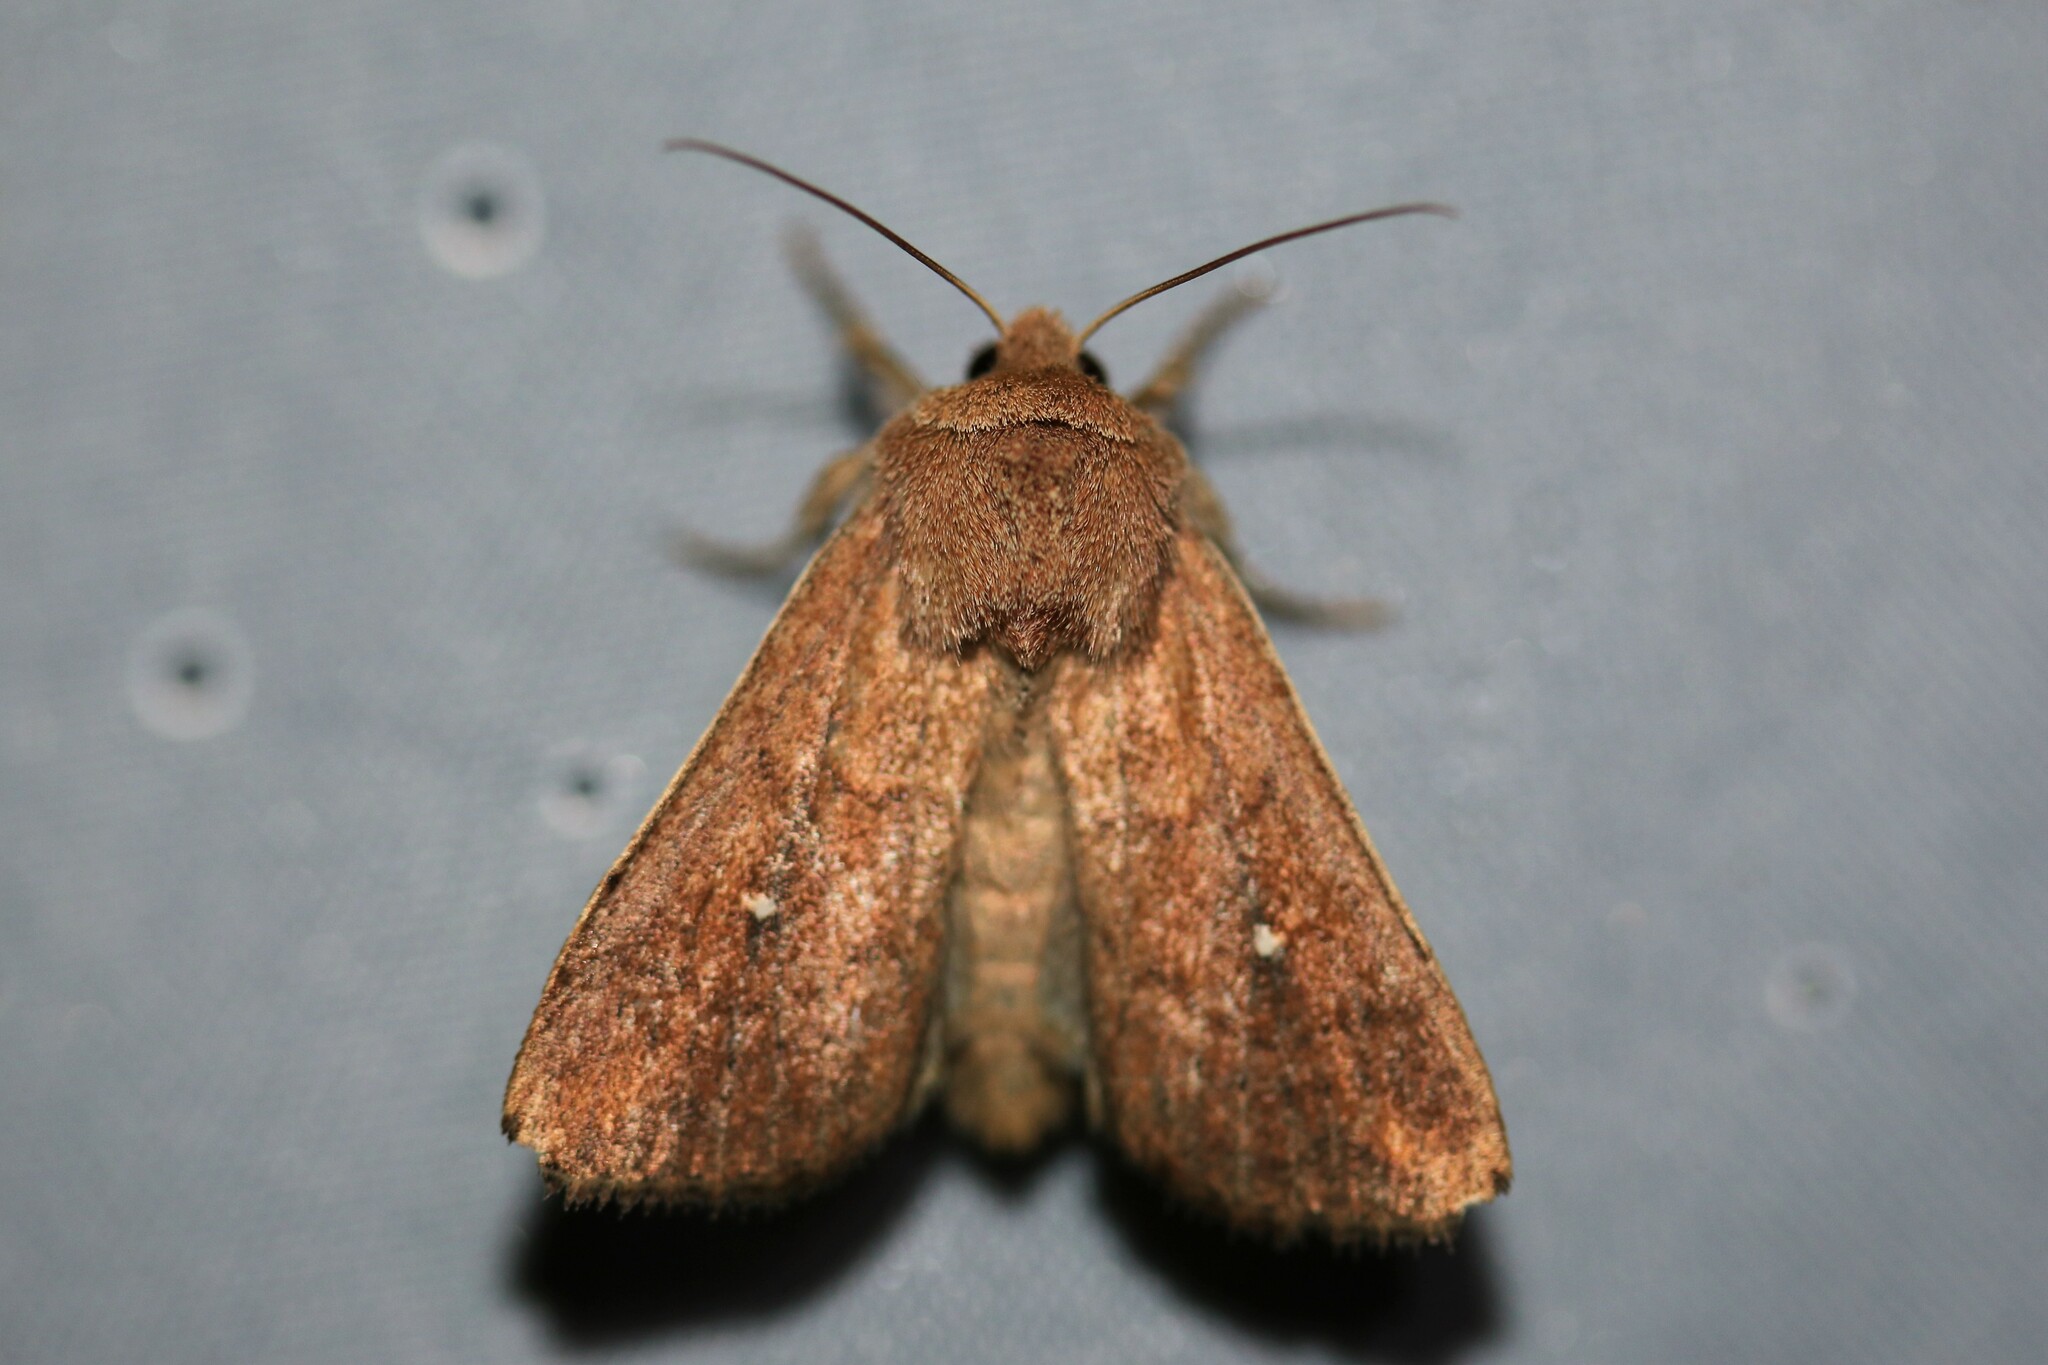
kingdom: Animalia
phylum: Arthropoda
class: Insecta
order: Lepidoptera
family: Noctuidae
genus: Mythimna
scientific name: Mythimna albipuncta
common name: White-point
